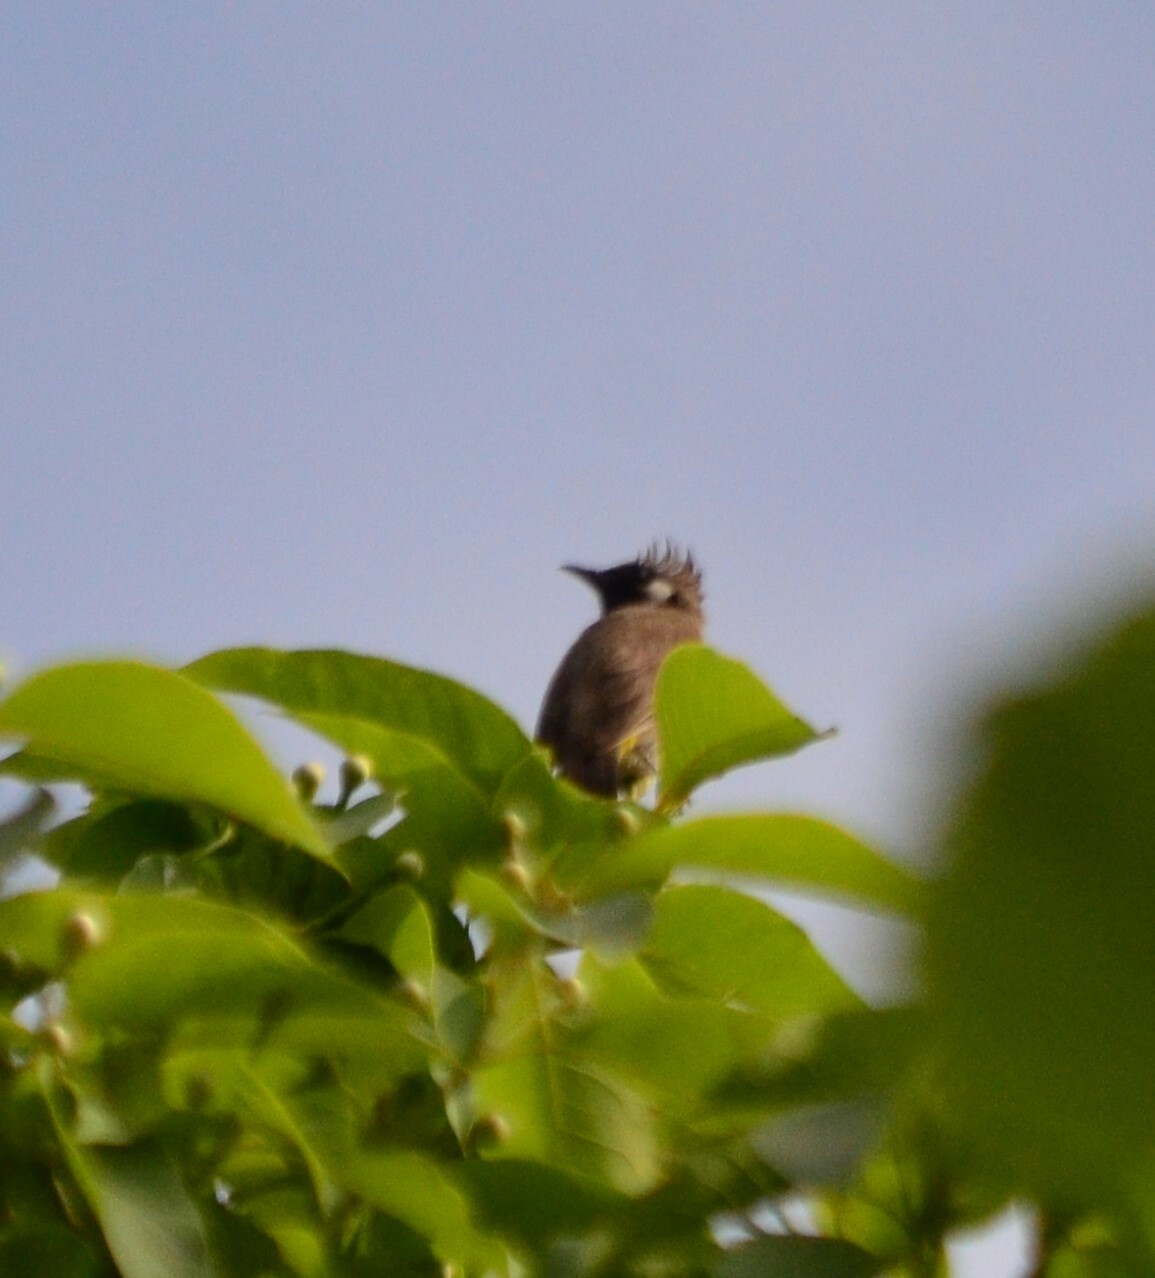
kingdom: Animalia
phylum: Chordata
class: Aves
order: Passeriformes
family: Pycnonotidae
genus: Pycnonotus
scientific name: Pycnonotus leucogenys
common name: Himalayan bulbul
